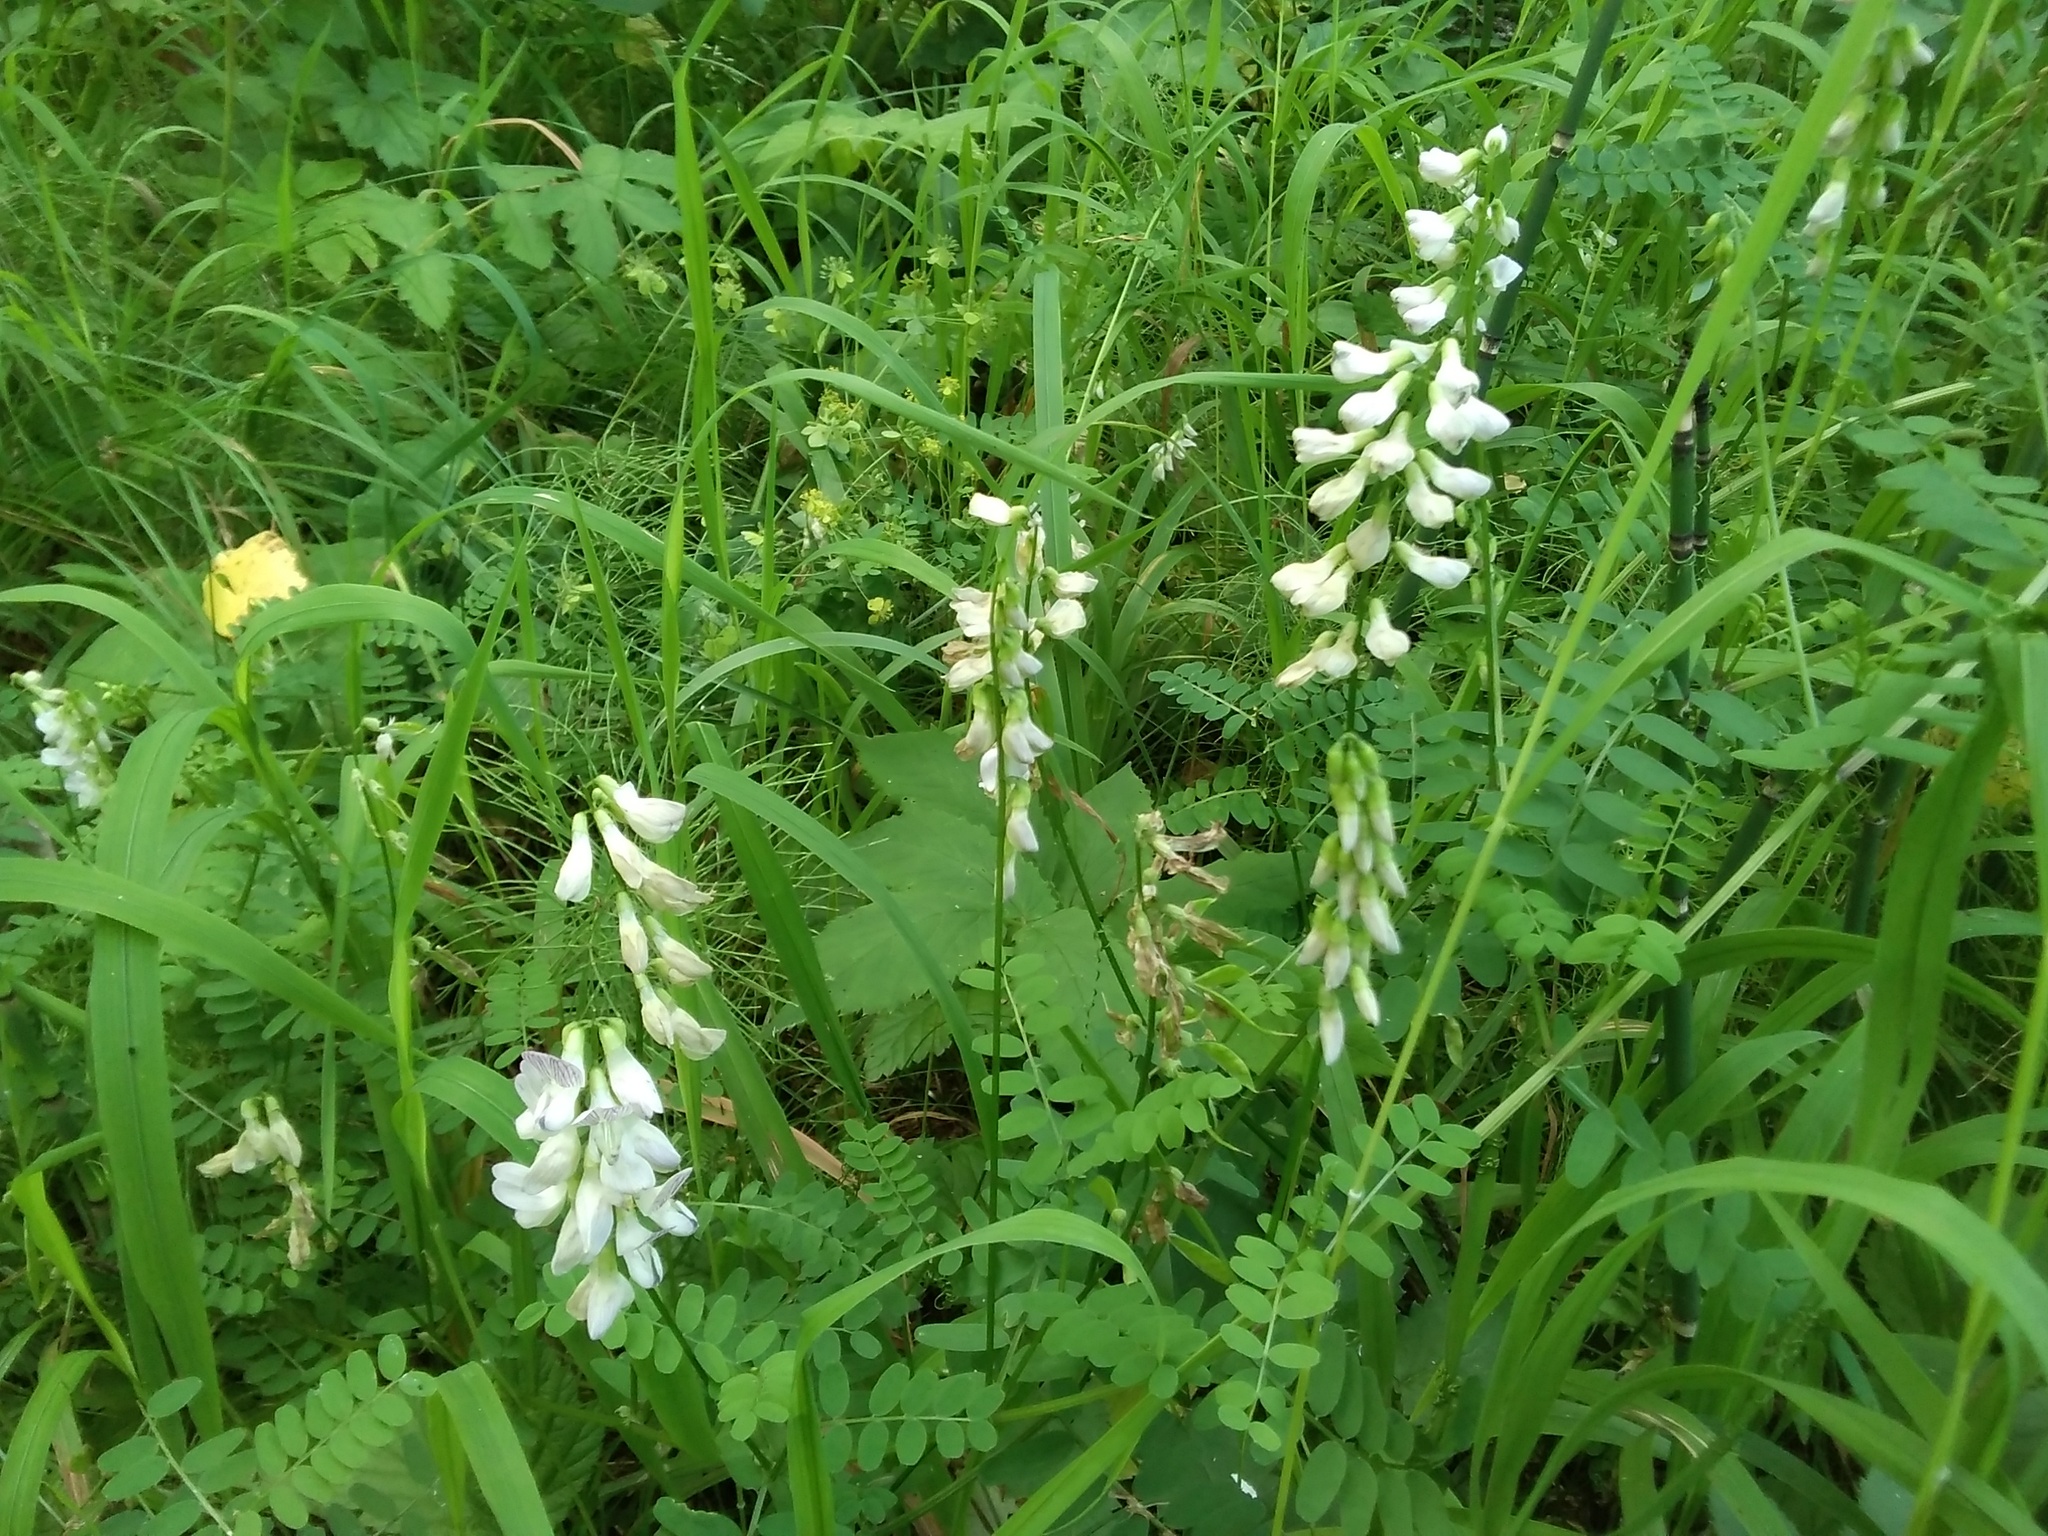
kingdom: Plantae
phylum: Tracheophyta
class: Magnoliopsida
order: Fabales
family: Fabaceae
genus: Vicia
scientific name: Vicia sylvatica
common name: Wood vetch
